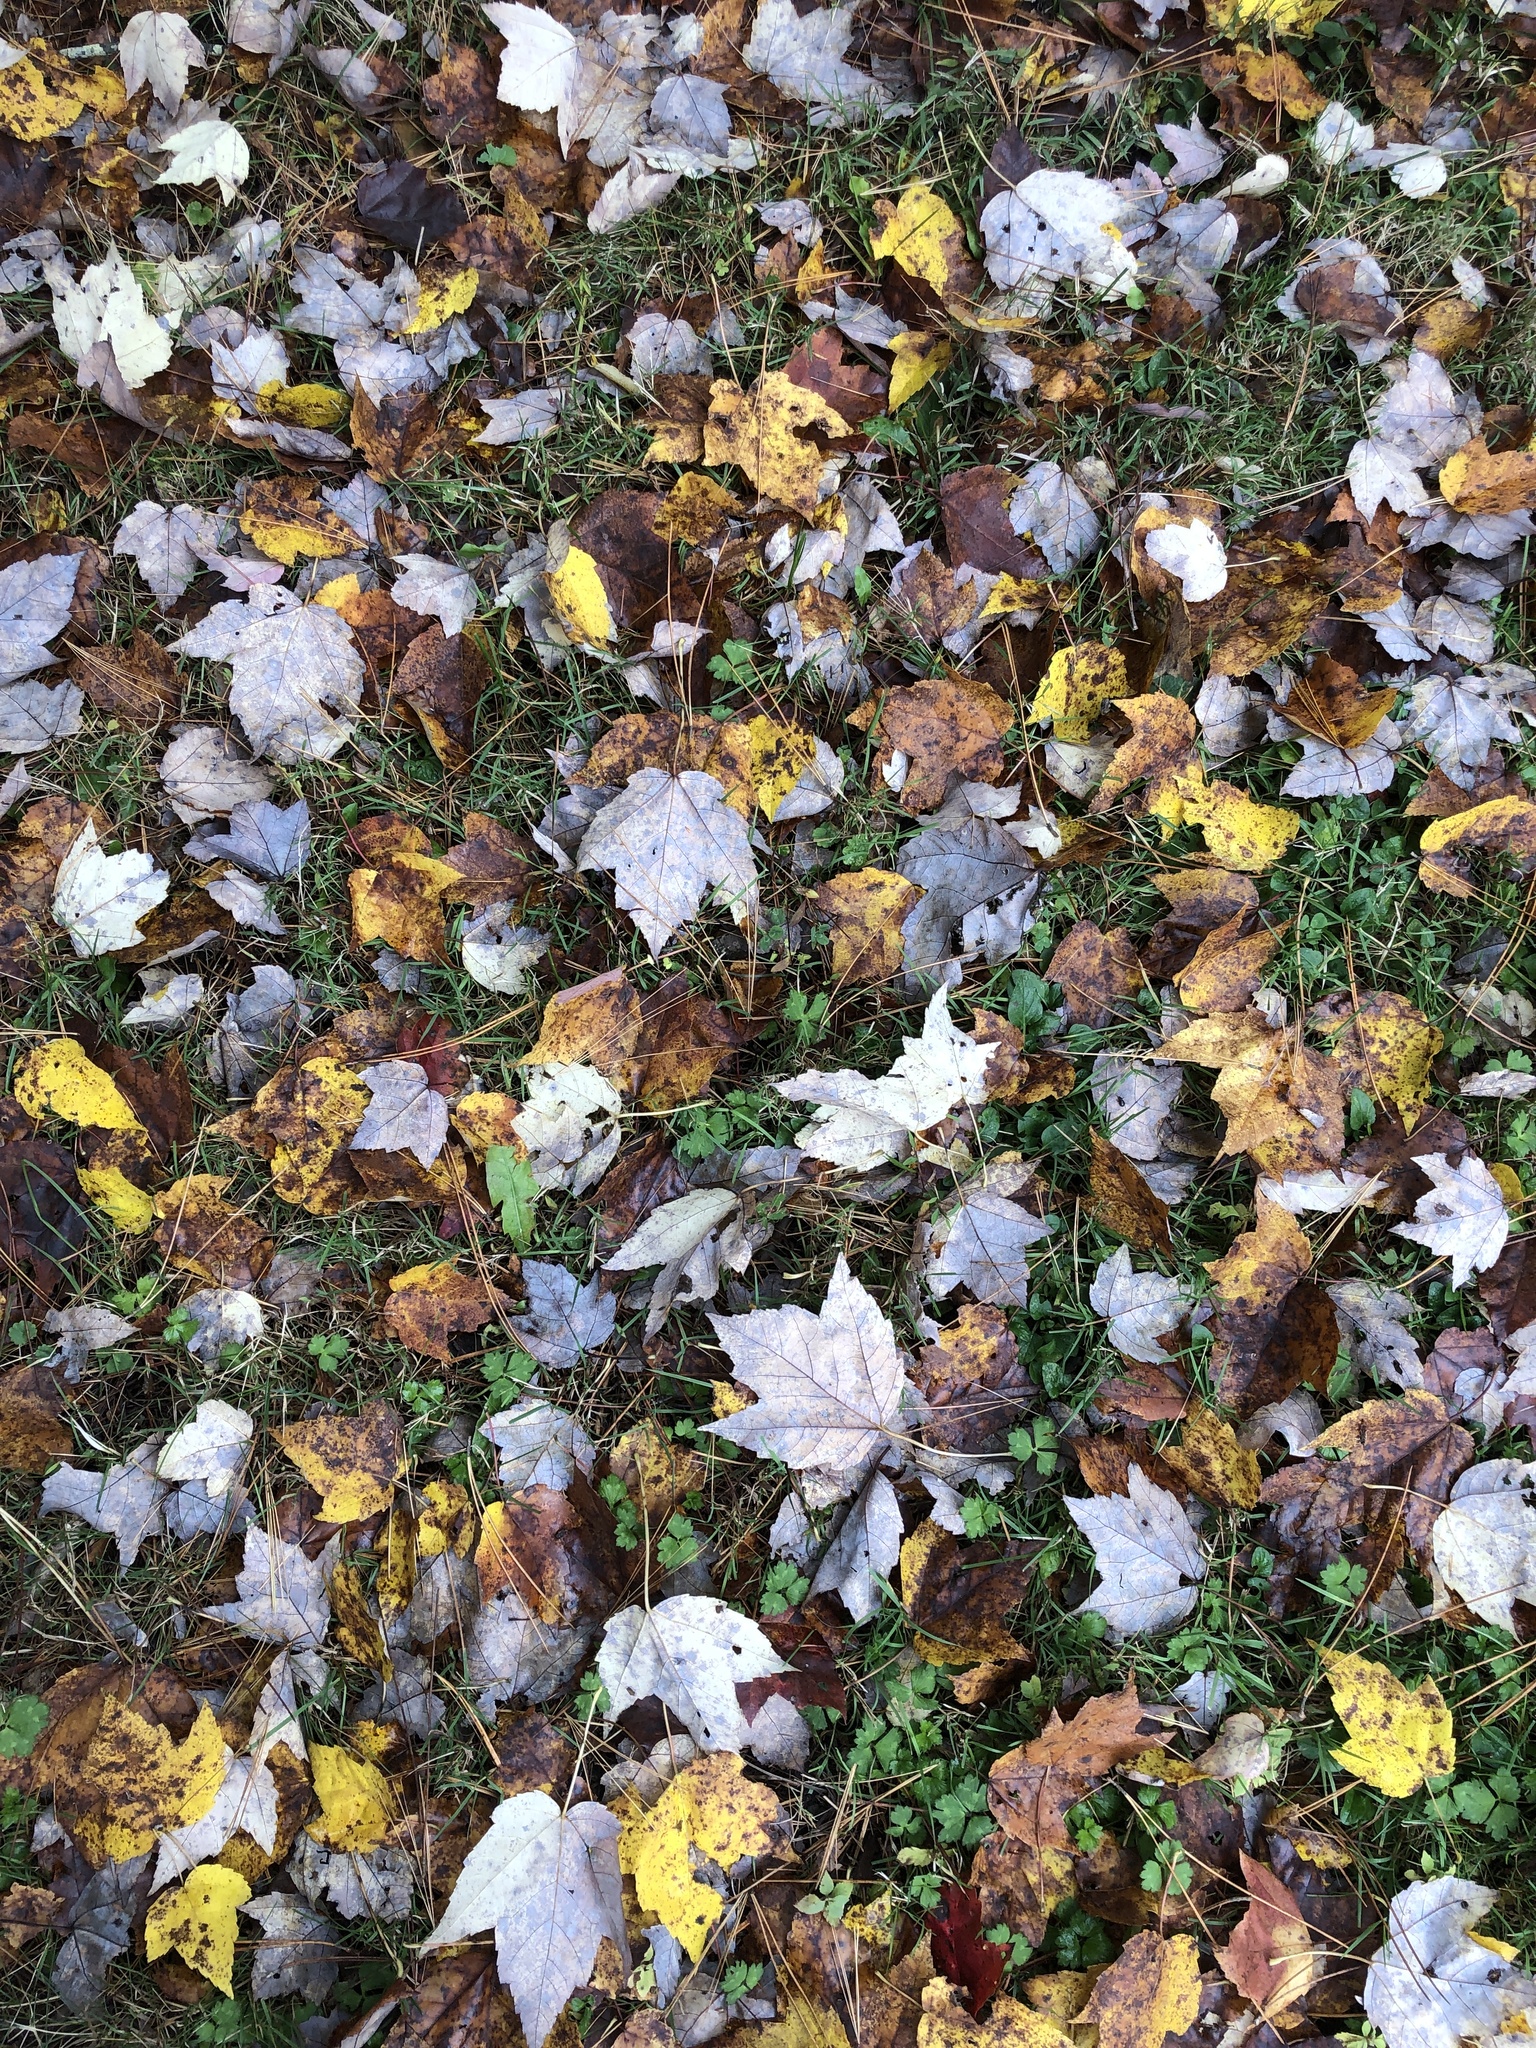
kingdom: Plantae
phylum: Tracheophyta
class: Magnoliopsida
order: Sapindales
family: Sapindaceae
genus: Acer
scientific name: Acer rubrum
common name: Red maple
